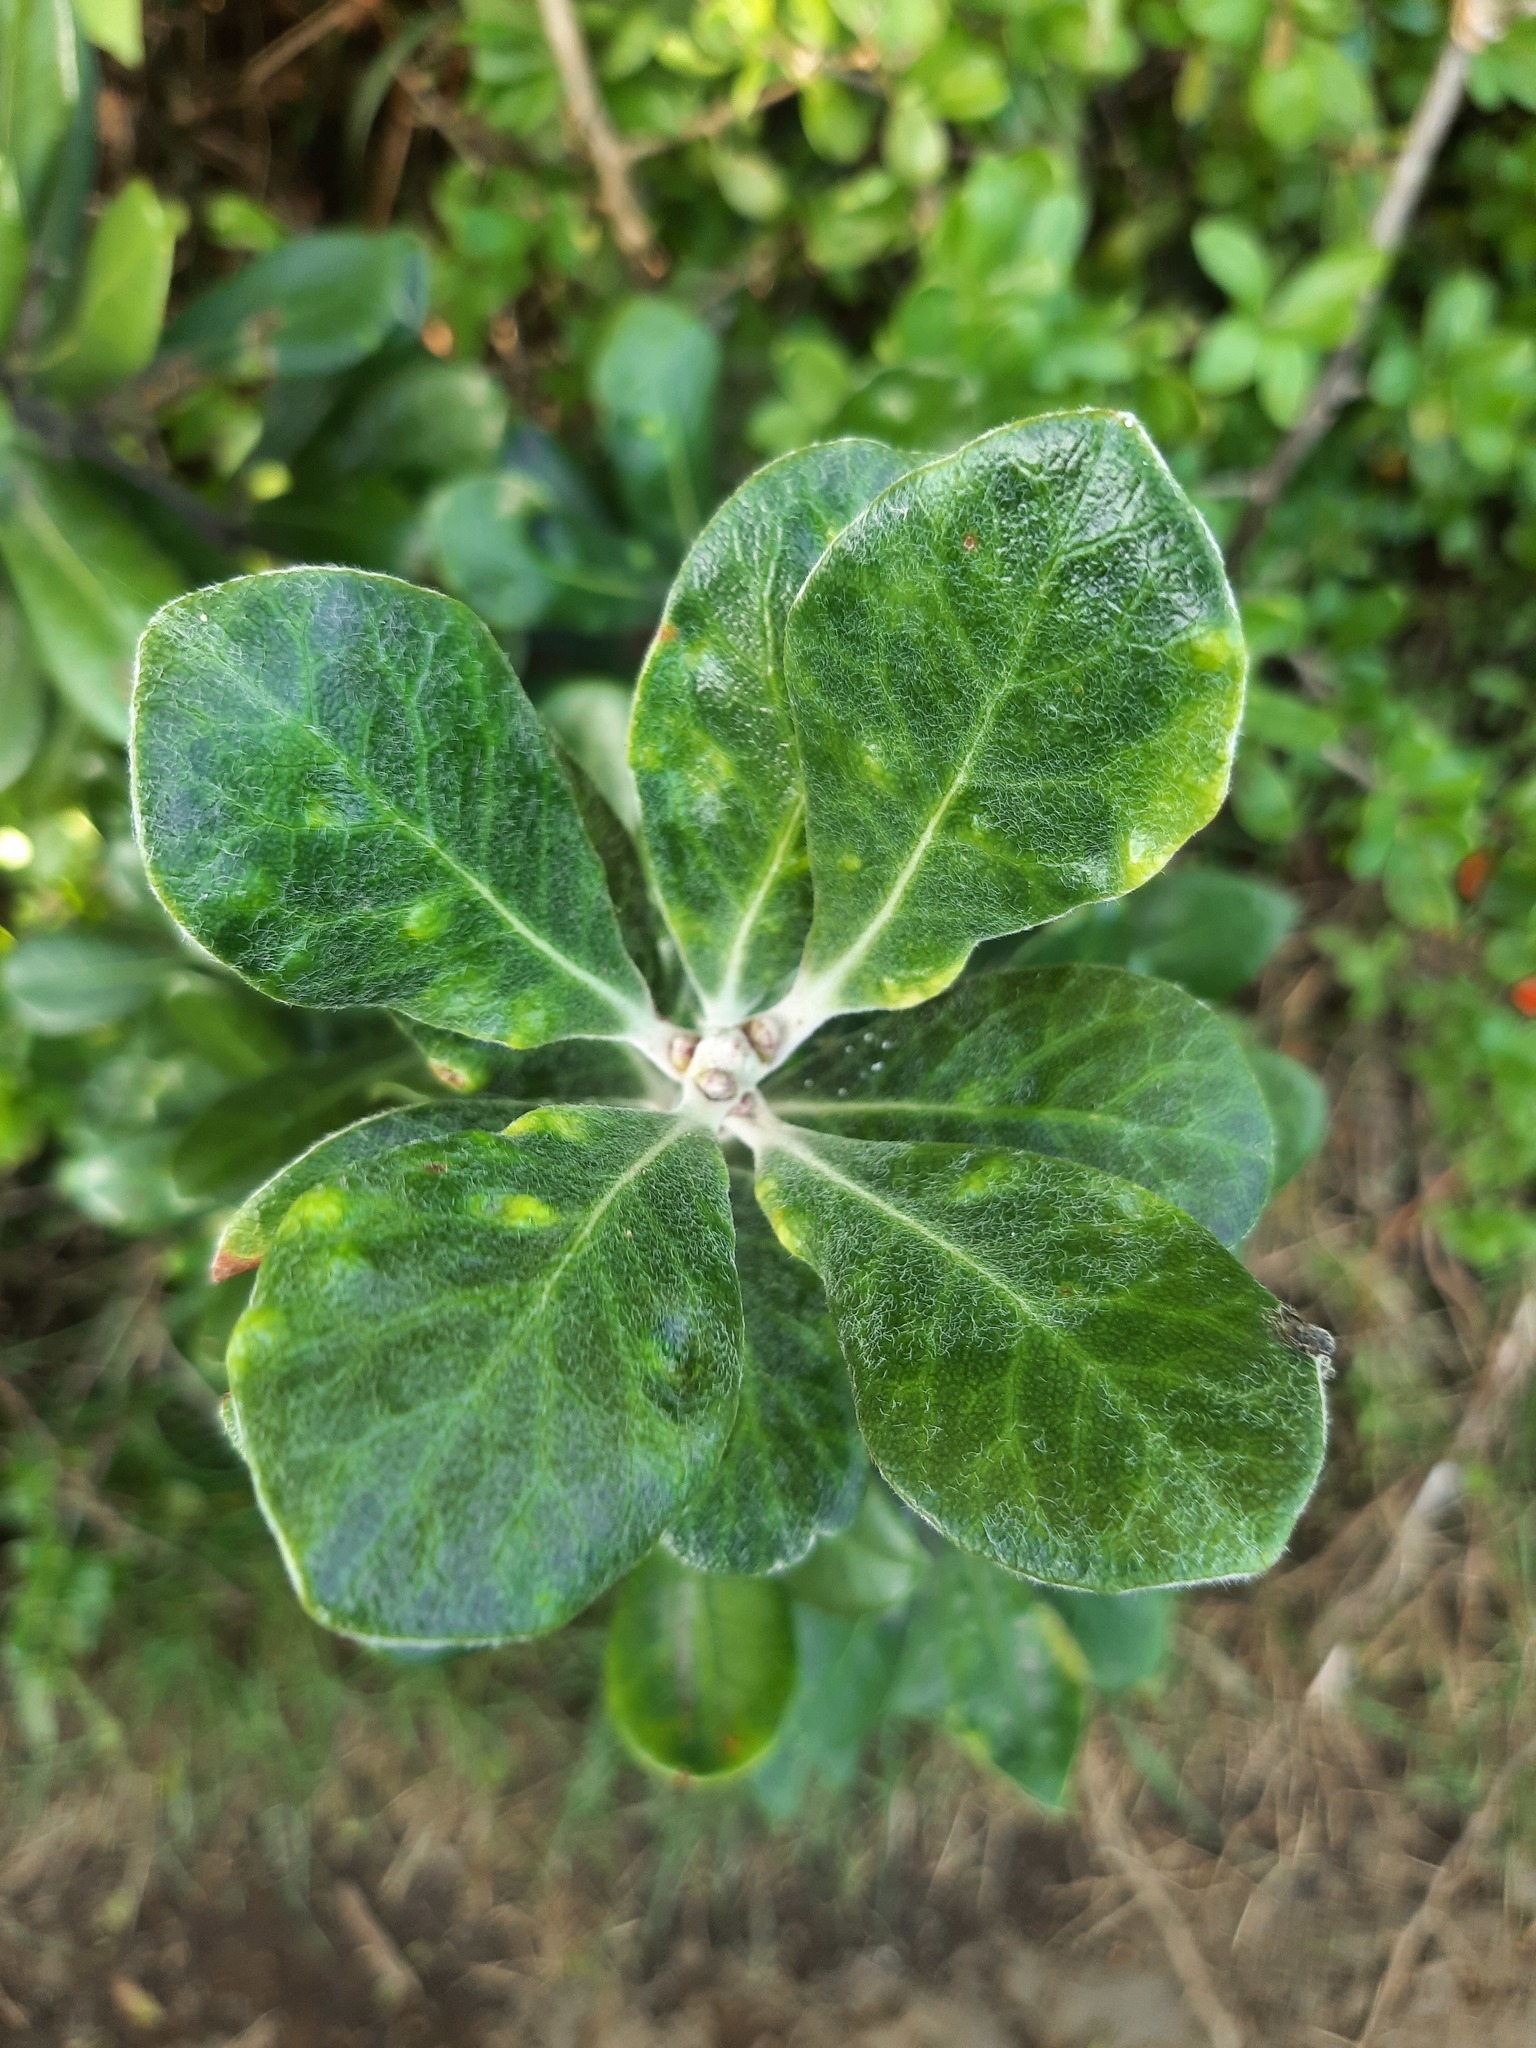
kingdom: Plantae
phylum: Tracheophyta
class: Magnoliopsida
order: Apiales
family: Pittosporaceae
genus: Pittosporum
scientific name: Pittosporum crassifolium
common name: Karo
